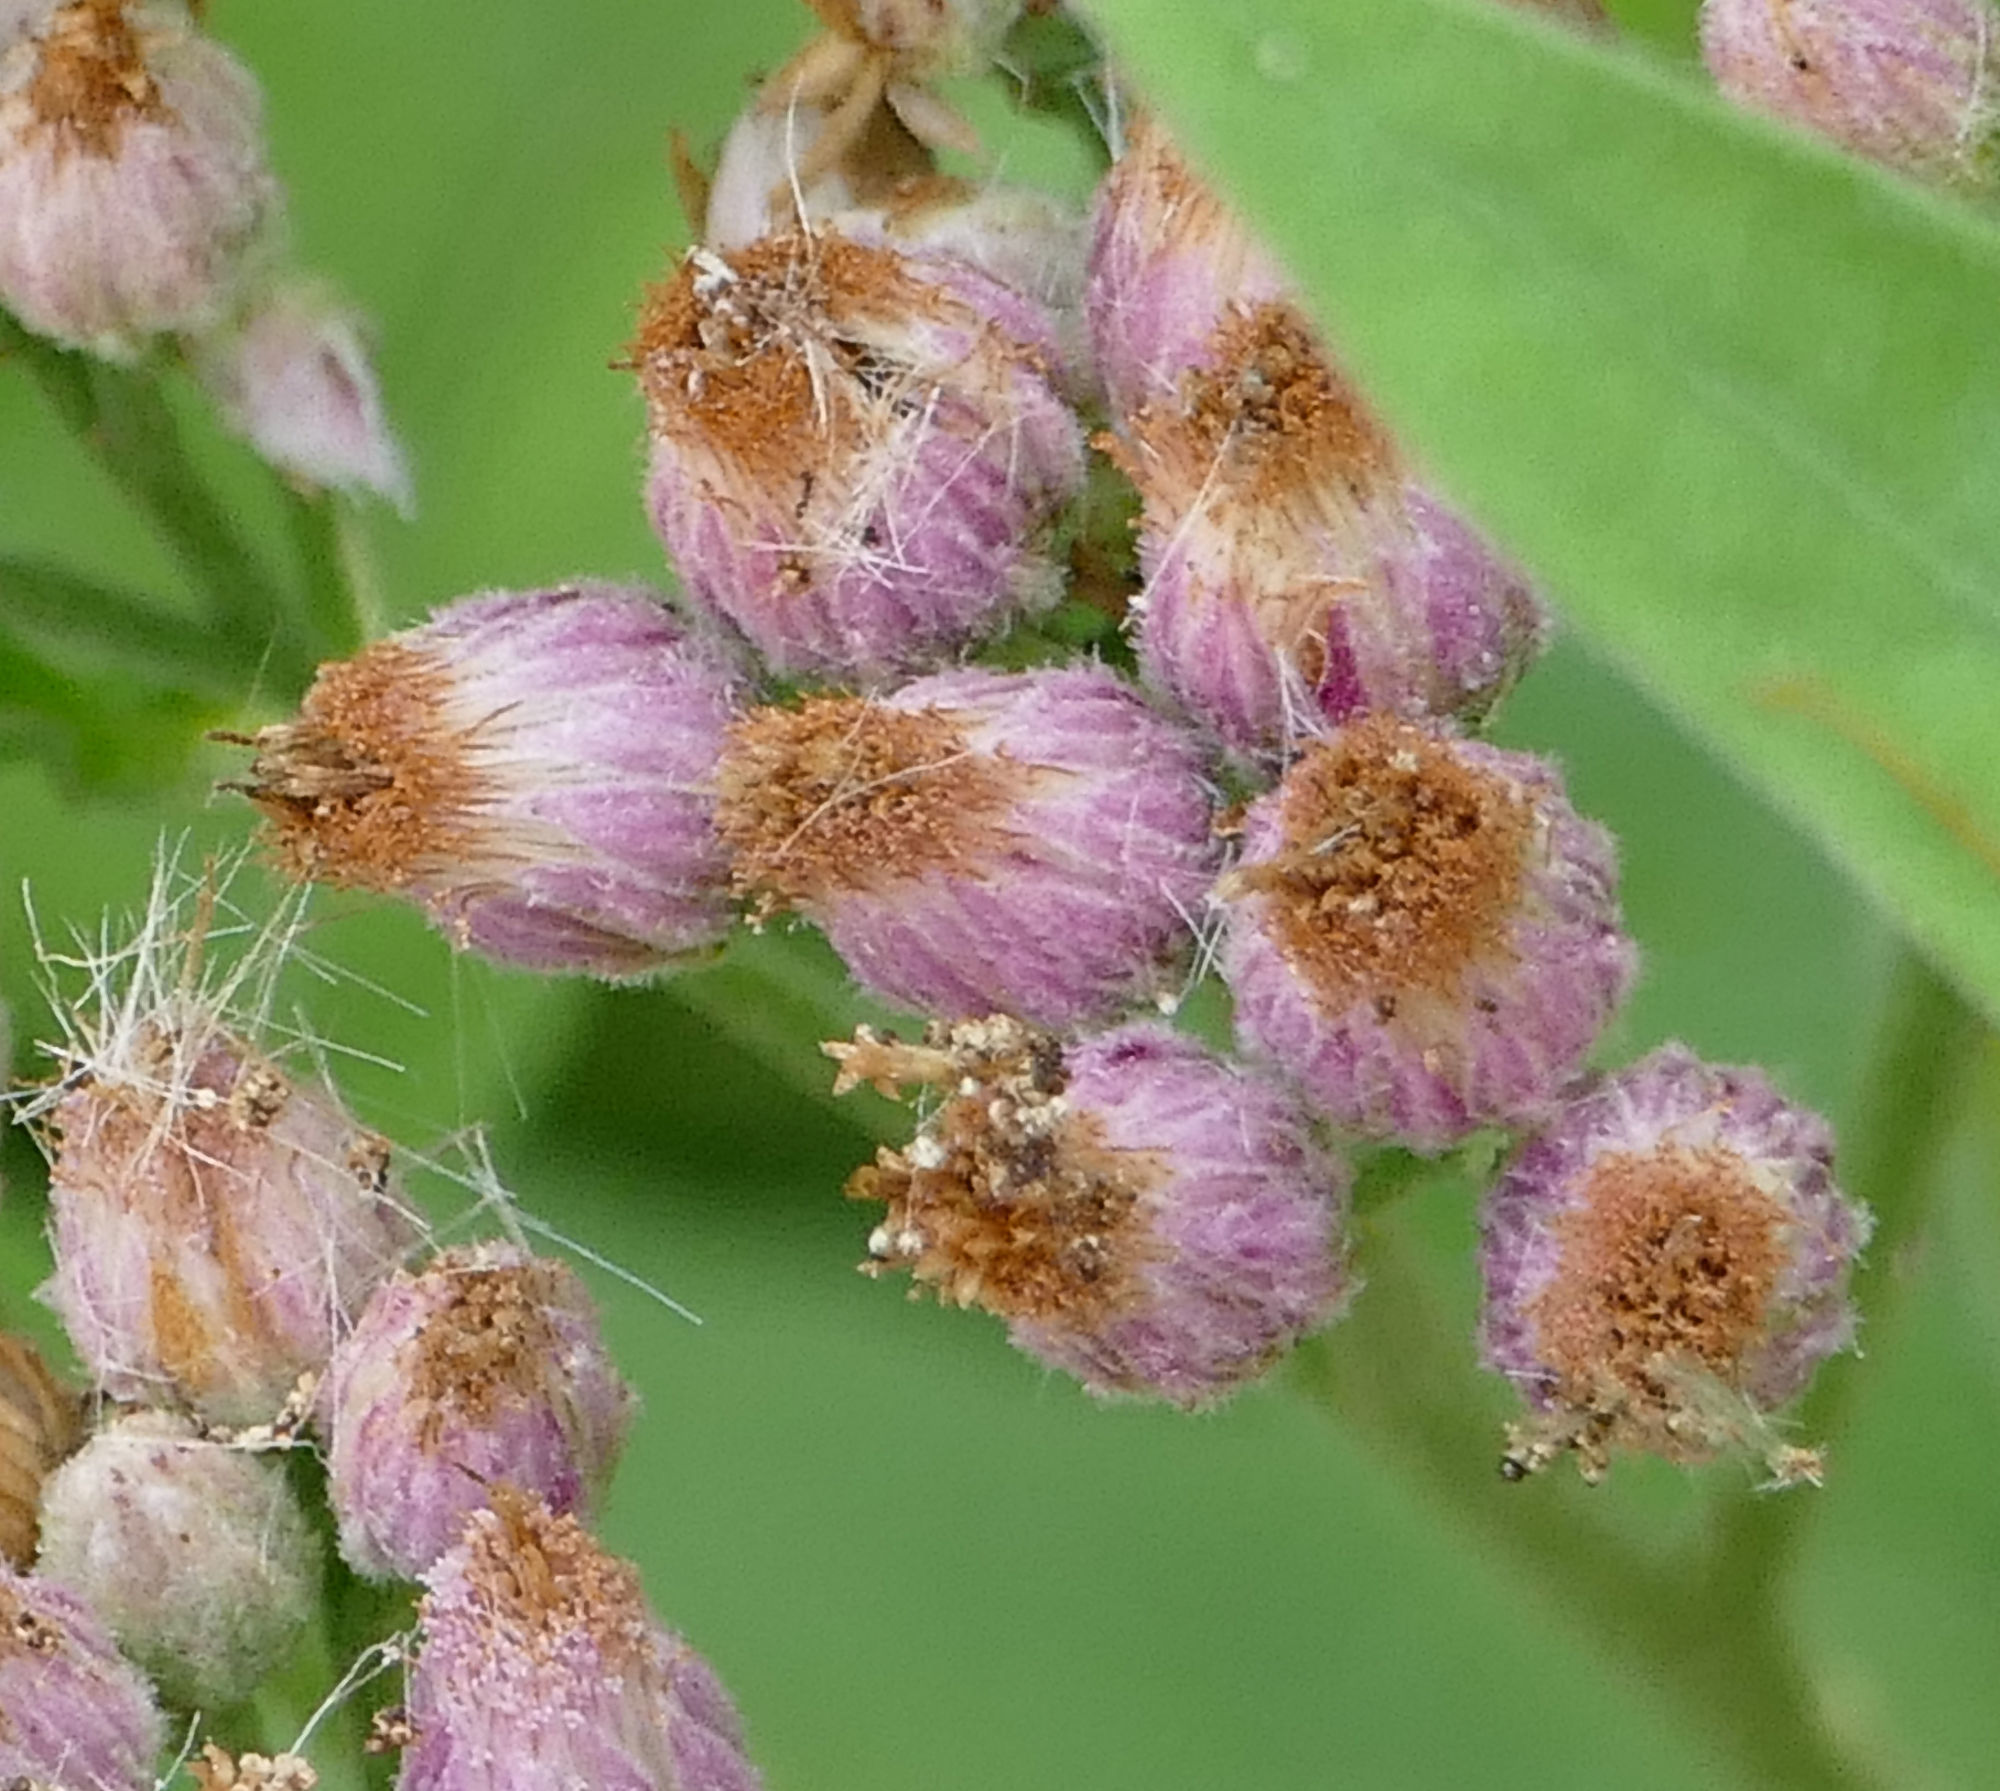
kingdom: Plantae
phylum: Tracheophyta
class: Magnoliopsida
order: Asterales
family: Asteraceae
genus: Pluchea
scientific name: Pluchea odorata
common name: Saltmarsh fleabane
